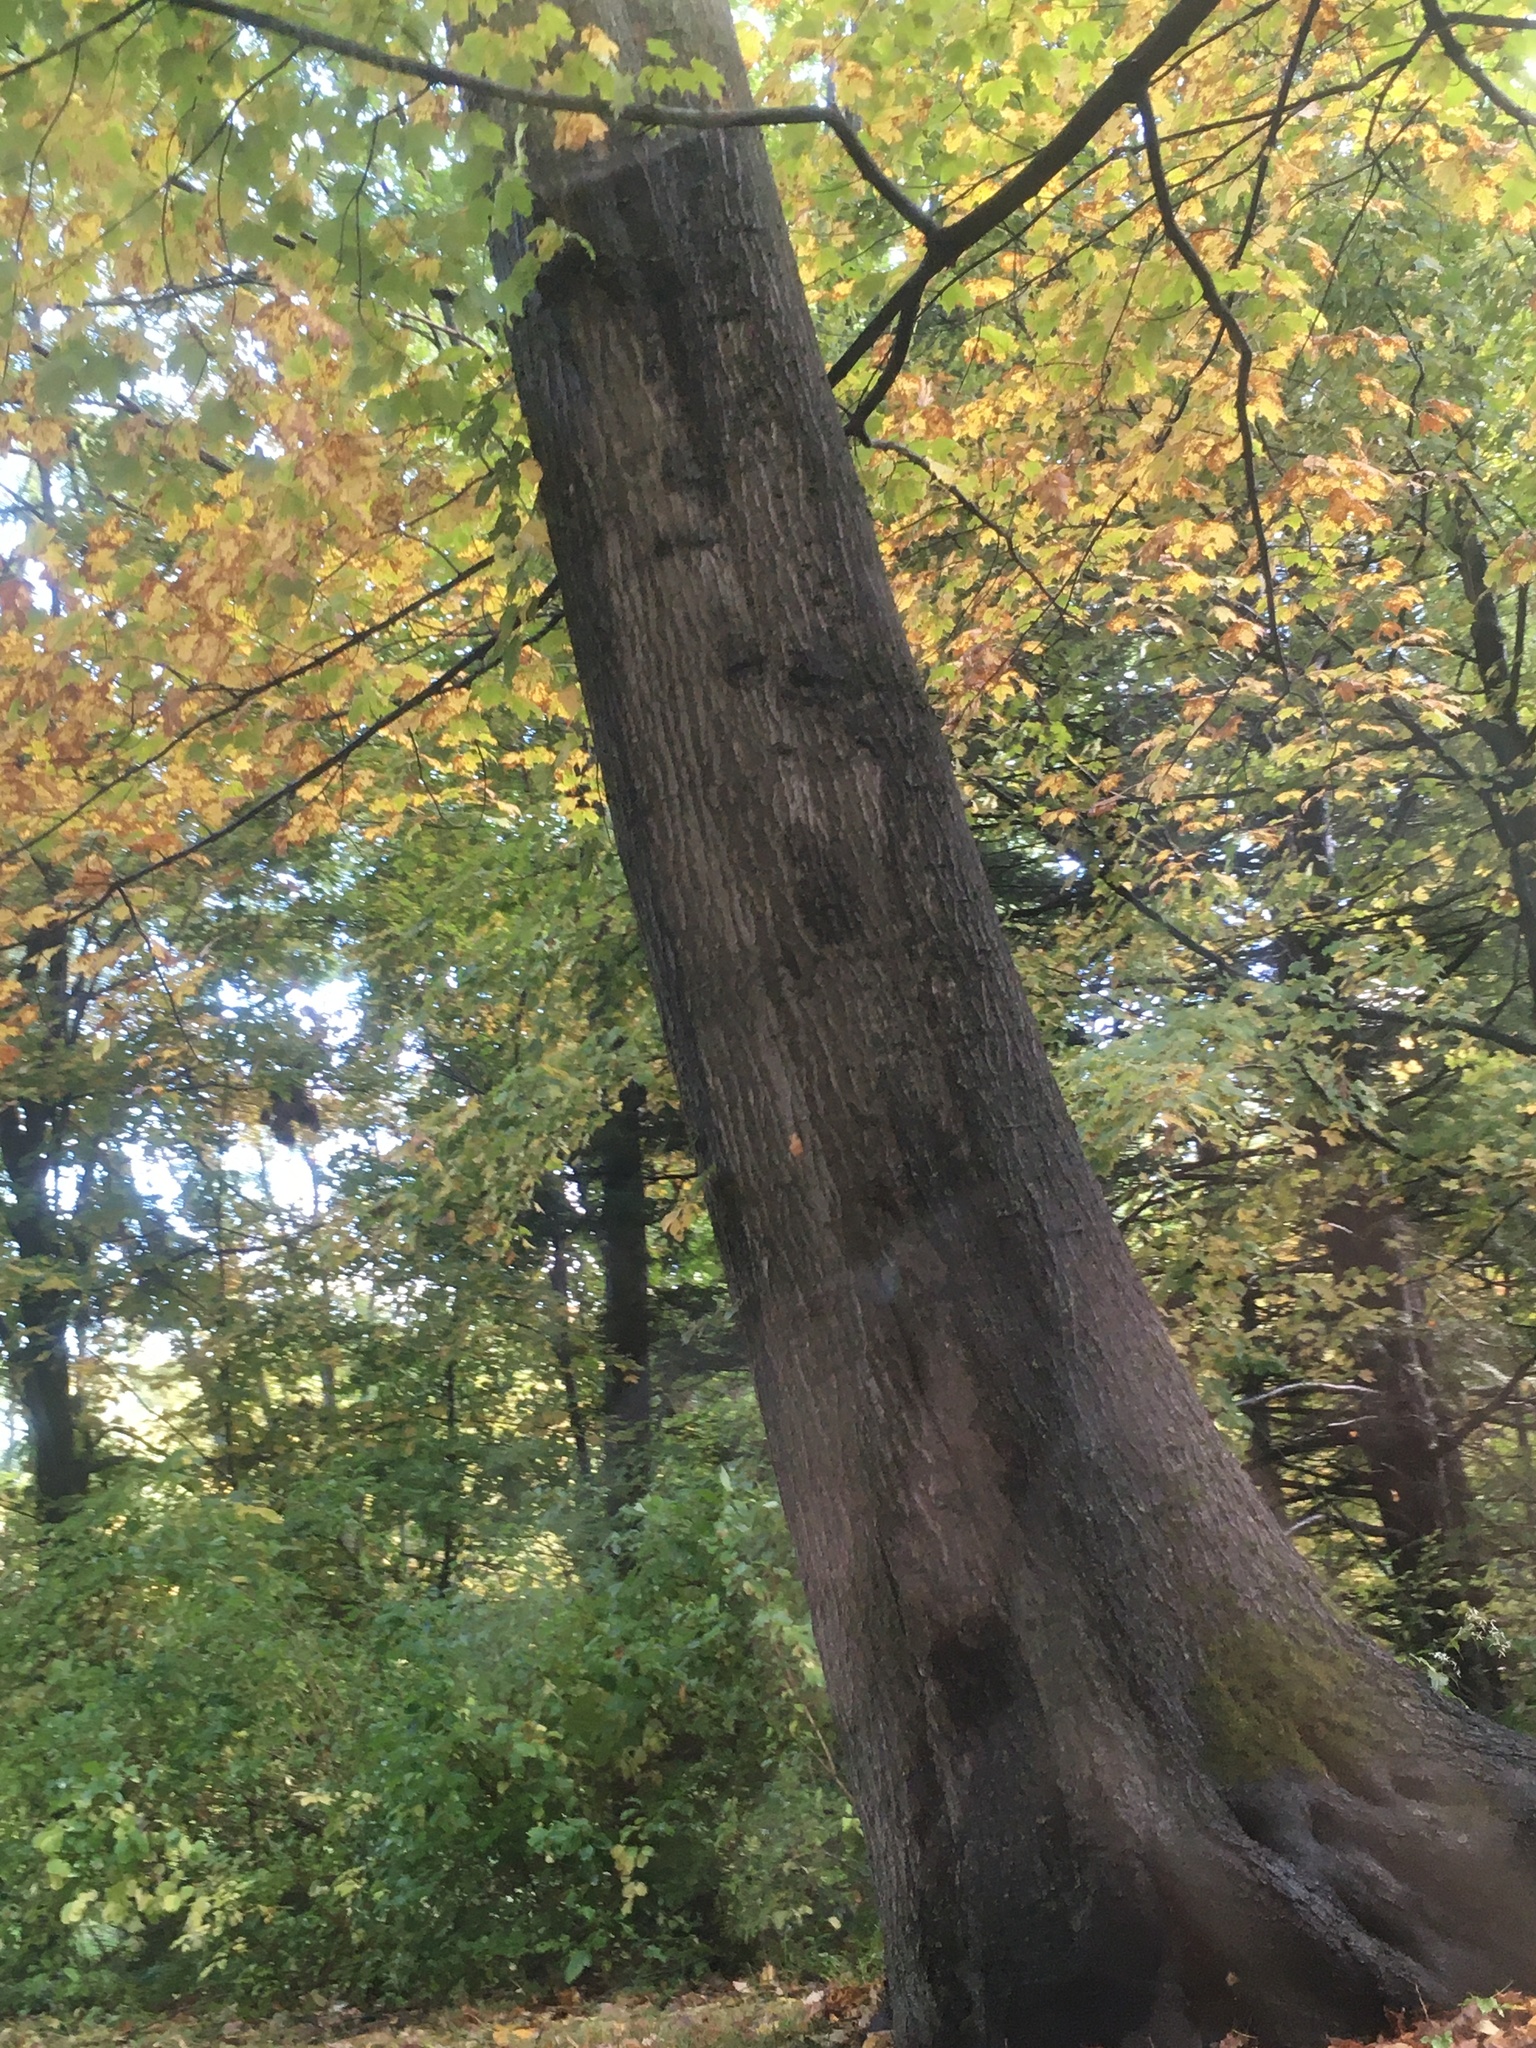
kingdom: Plantae
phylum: Tracheophyta
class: Magnoliopsida
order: Fagales
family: Fagaceae
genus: Quercus
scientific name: Quercus rubra
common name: Red oak
